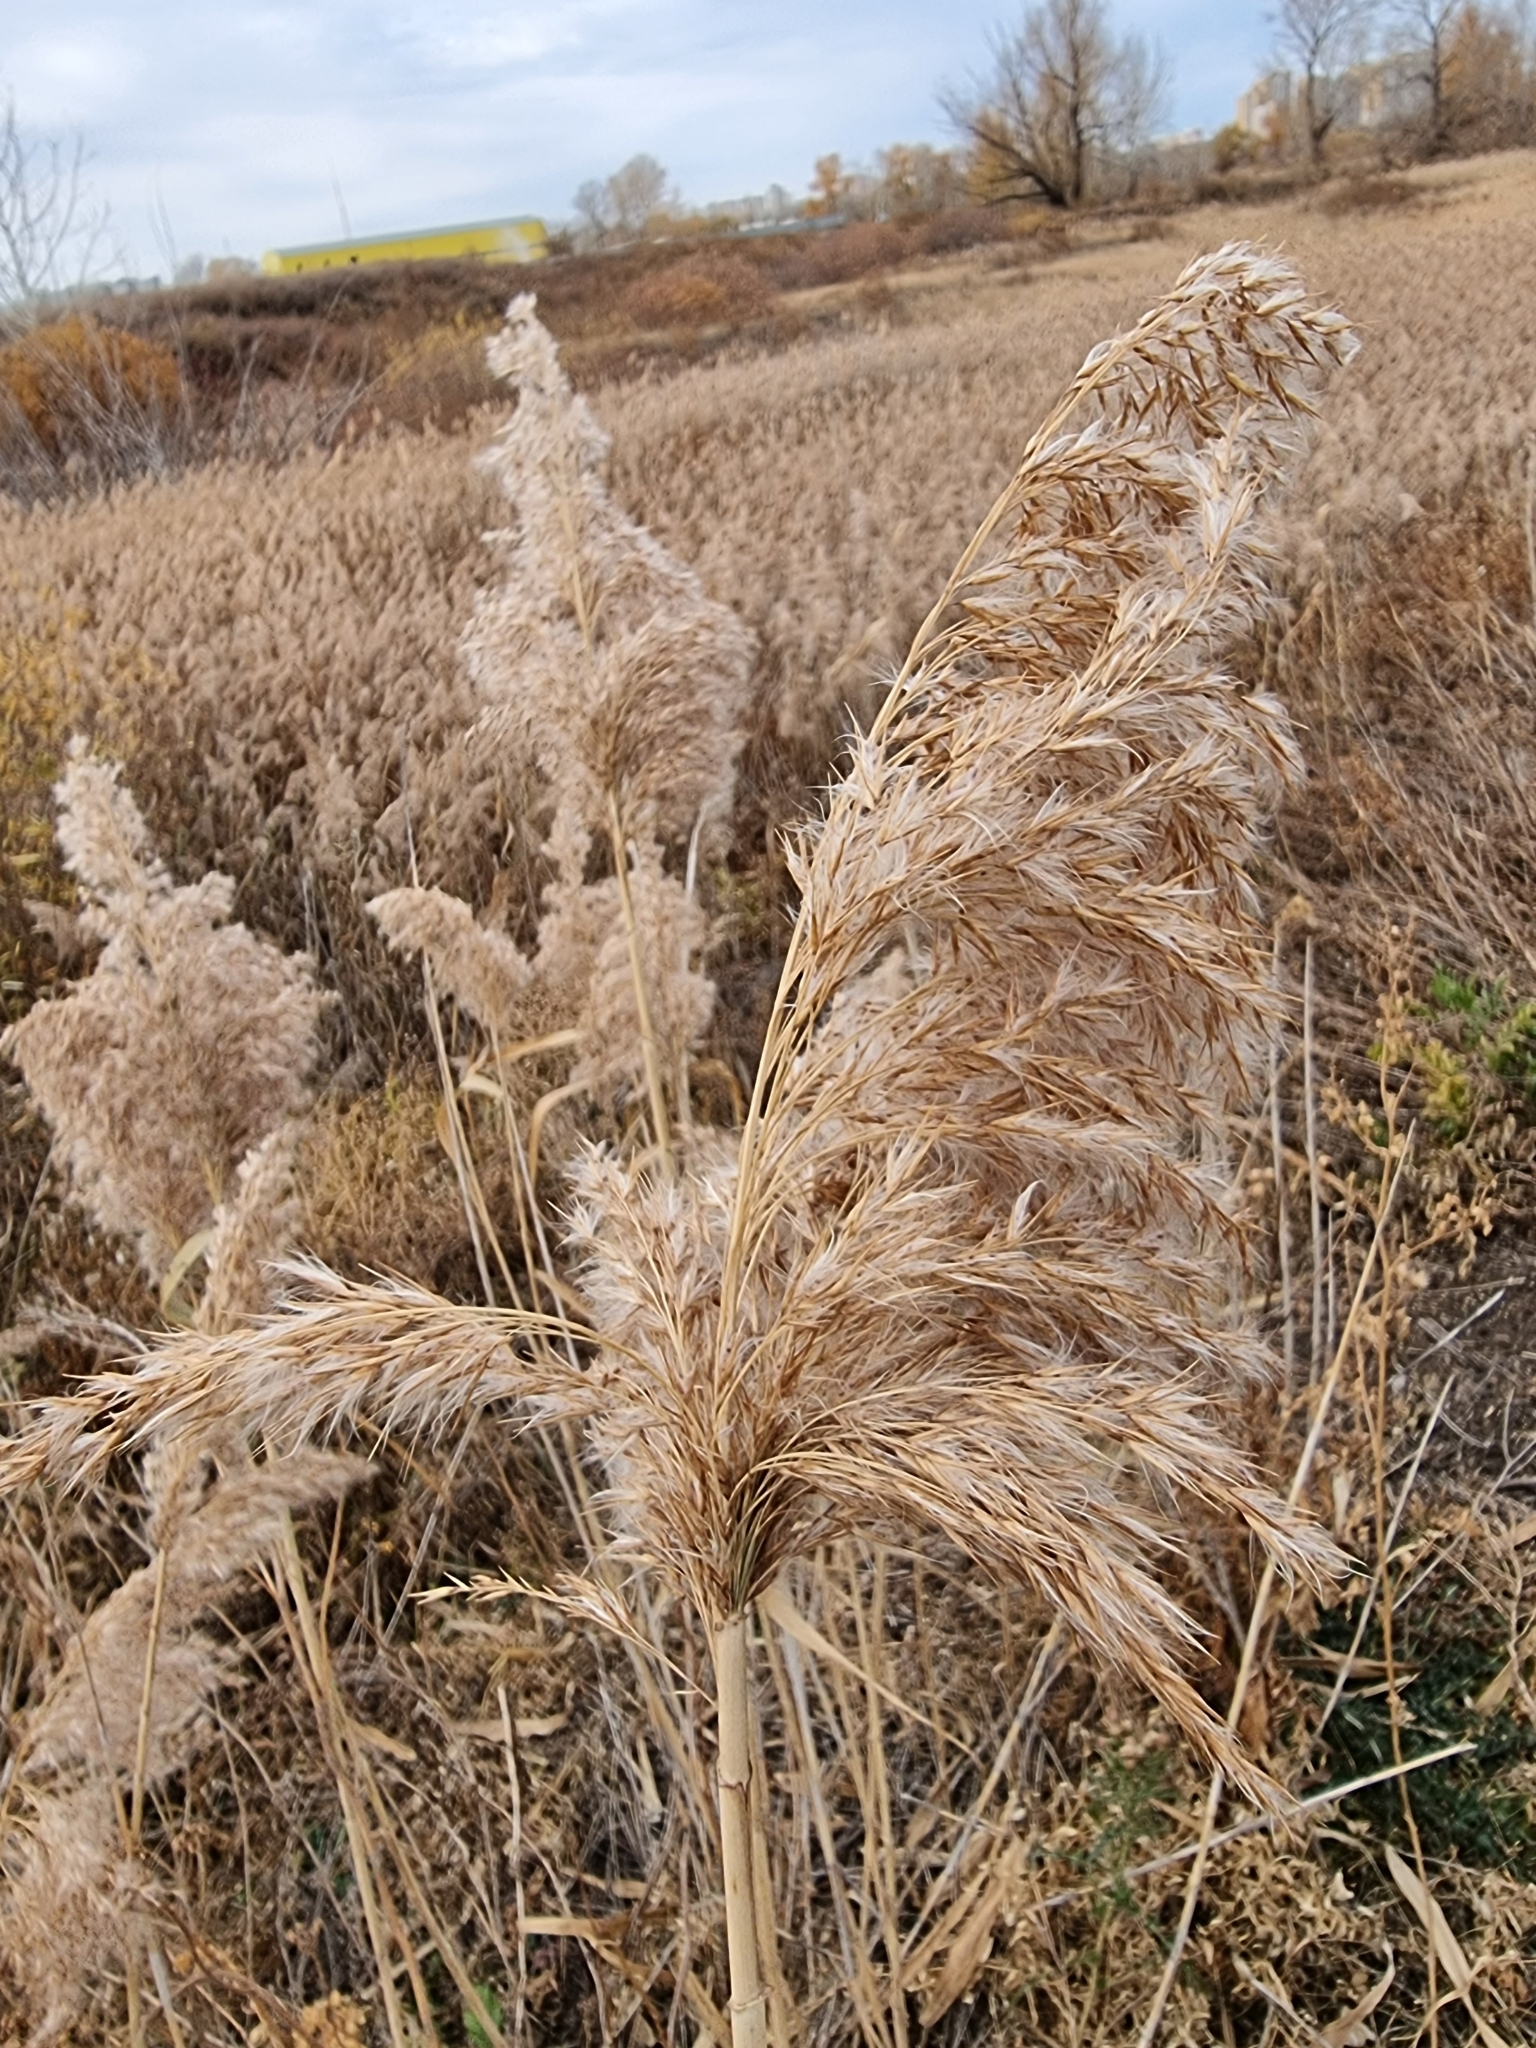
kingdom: Plantae
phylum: Tracheophyta
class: Liliopsida
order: Poales
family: Poaceae
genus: Phragmites
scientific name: Phragmites australis
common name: Common reed
